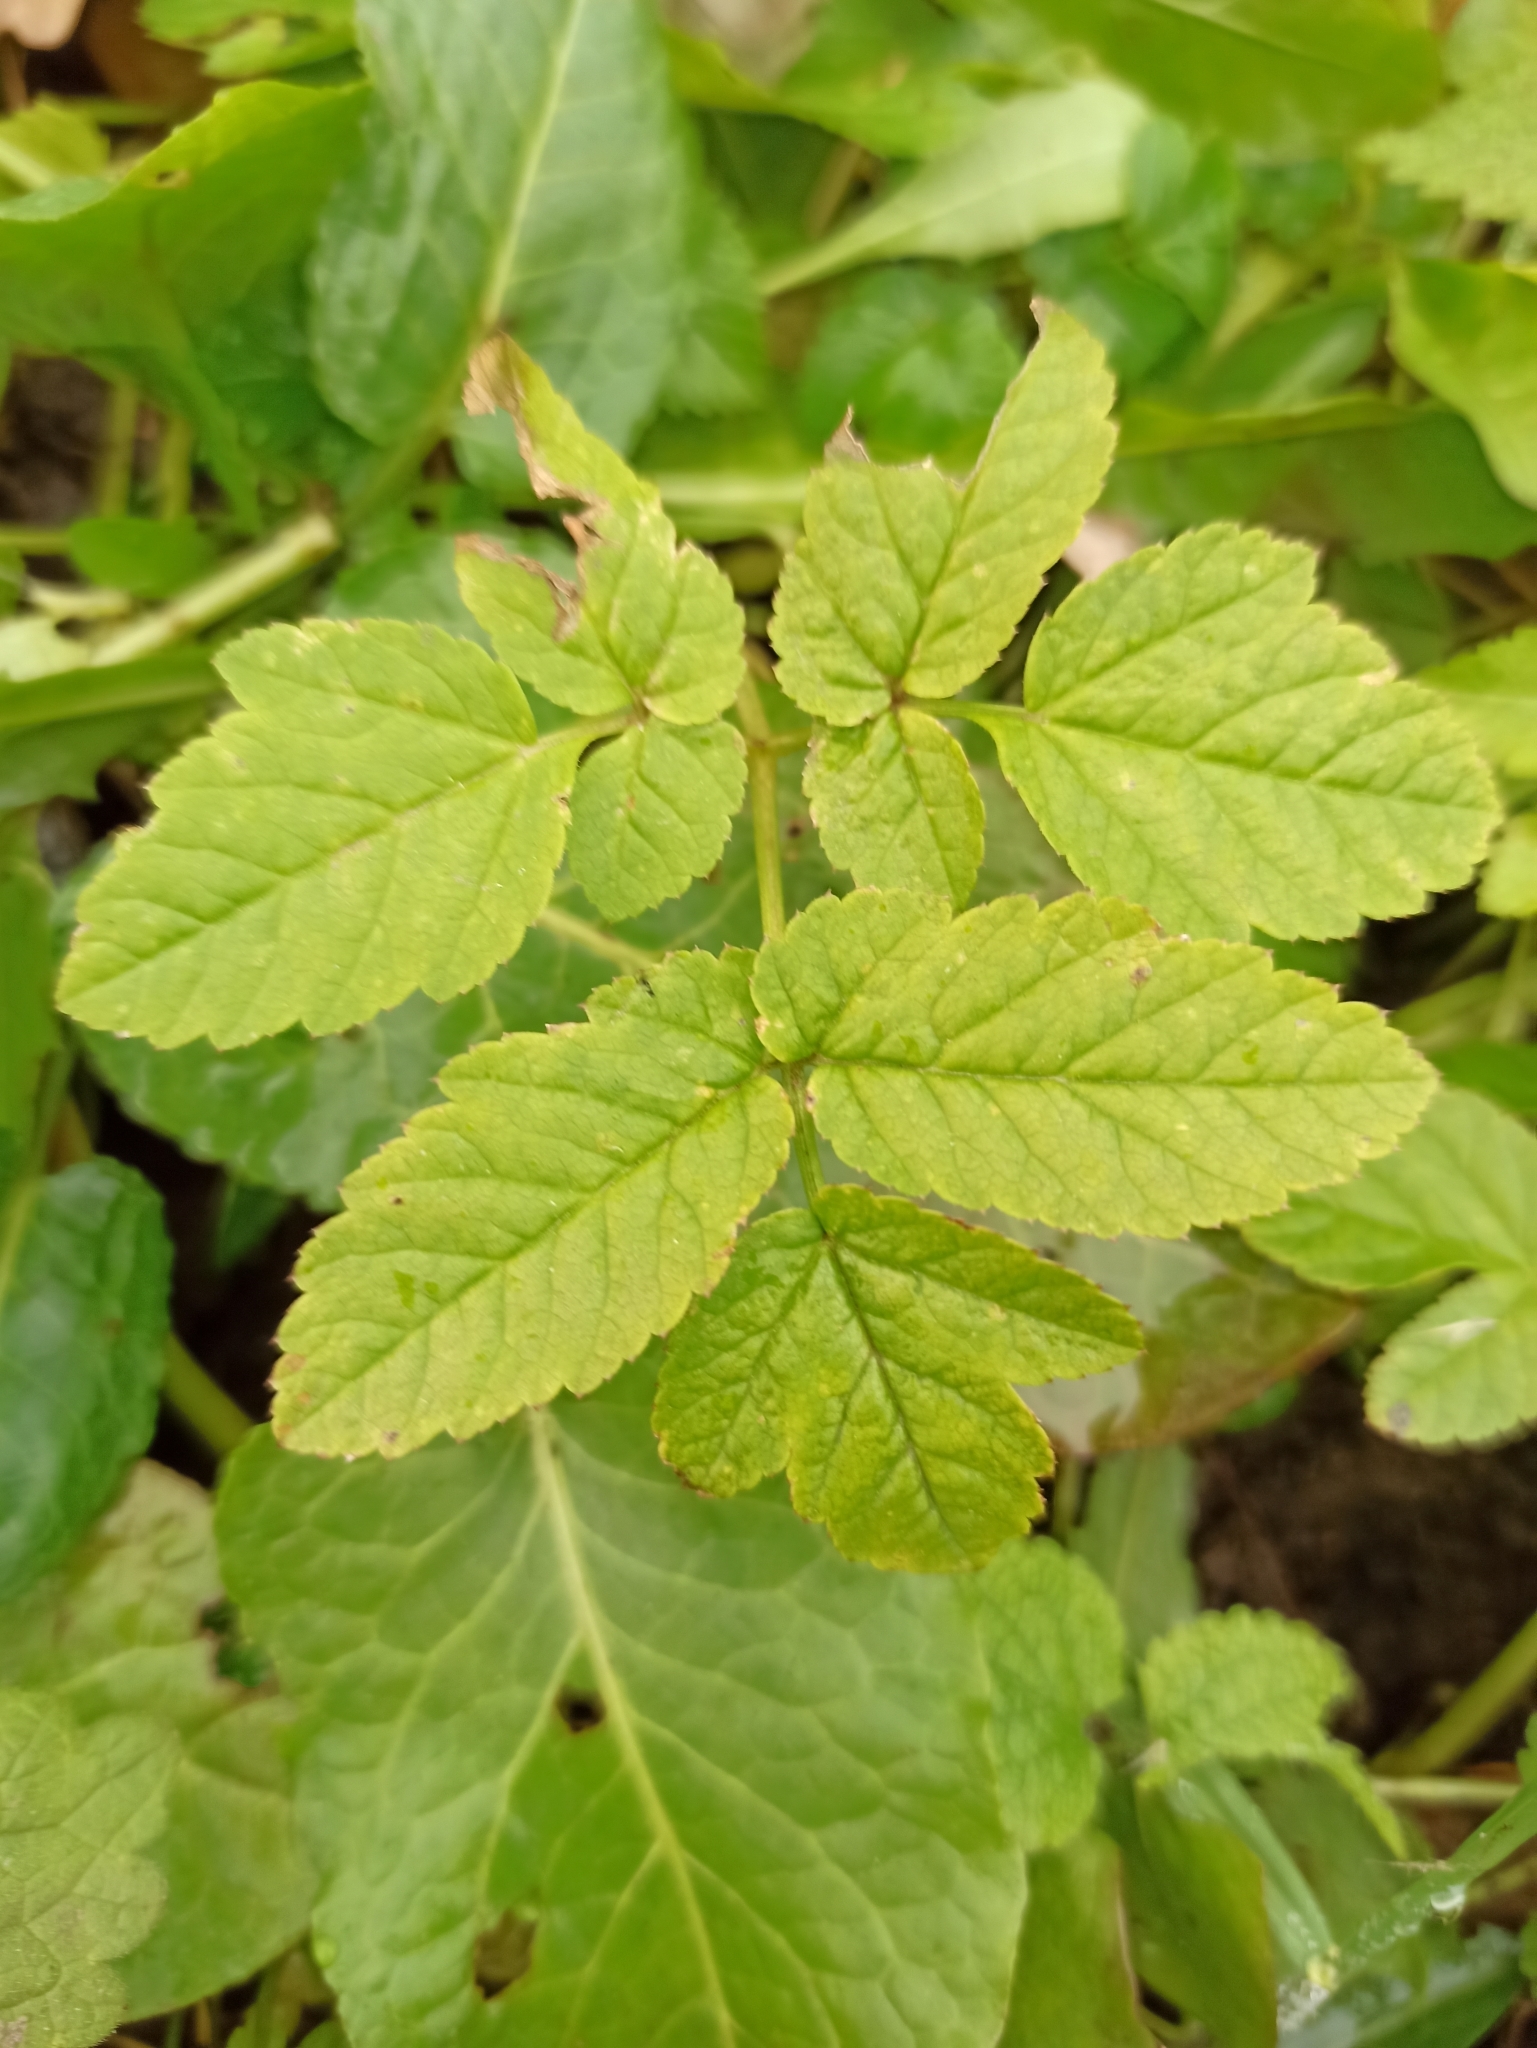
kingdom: Plantae
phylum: Tracheophyta
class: Magnoliopsida
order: Apiales
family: Apiaceae
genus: Aegopodium
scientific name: Aegopodium podagraria
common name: Ground-elder
